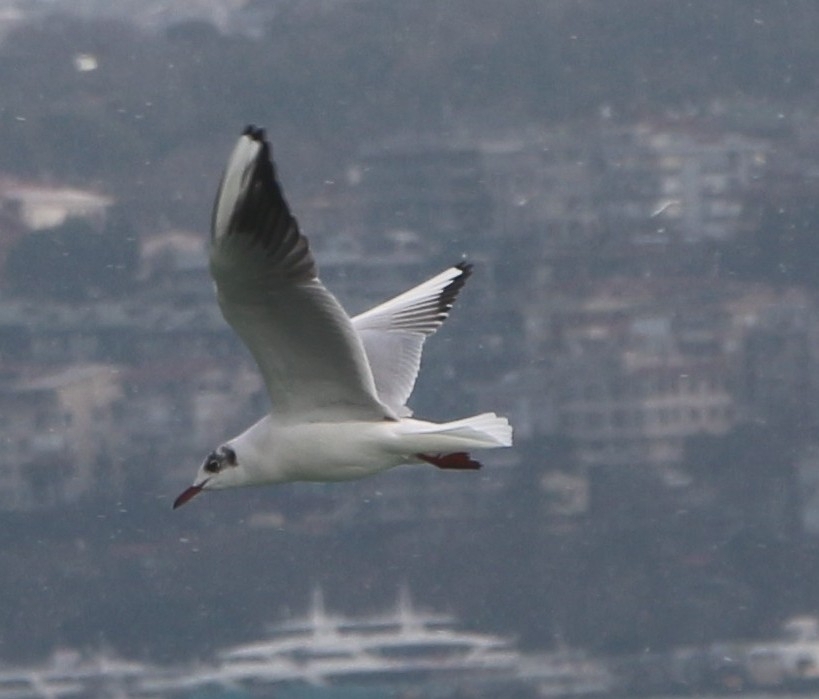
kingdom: Animalia
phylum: Chordata
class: Aves
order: Charadriiformes
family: Laridae
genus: Chroicocephalus
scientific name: Chroicocephalus ridibundus
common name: Black-headed gull
